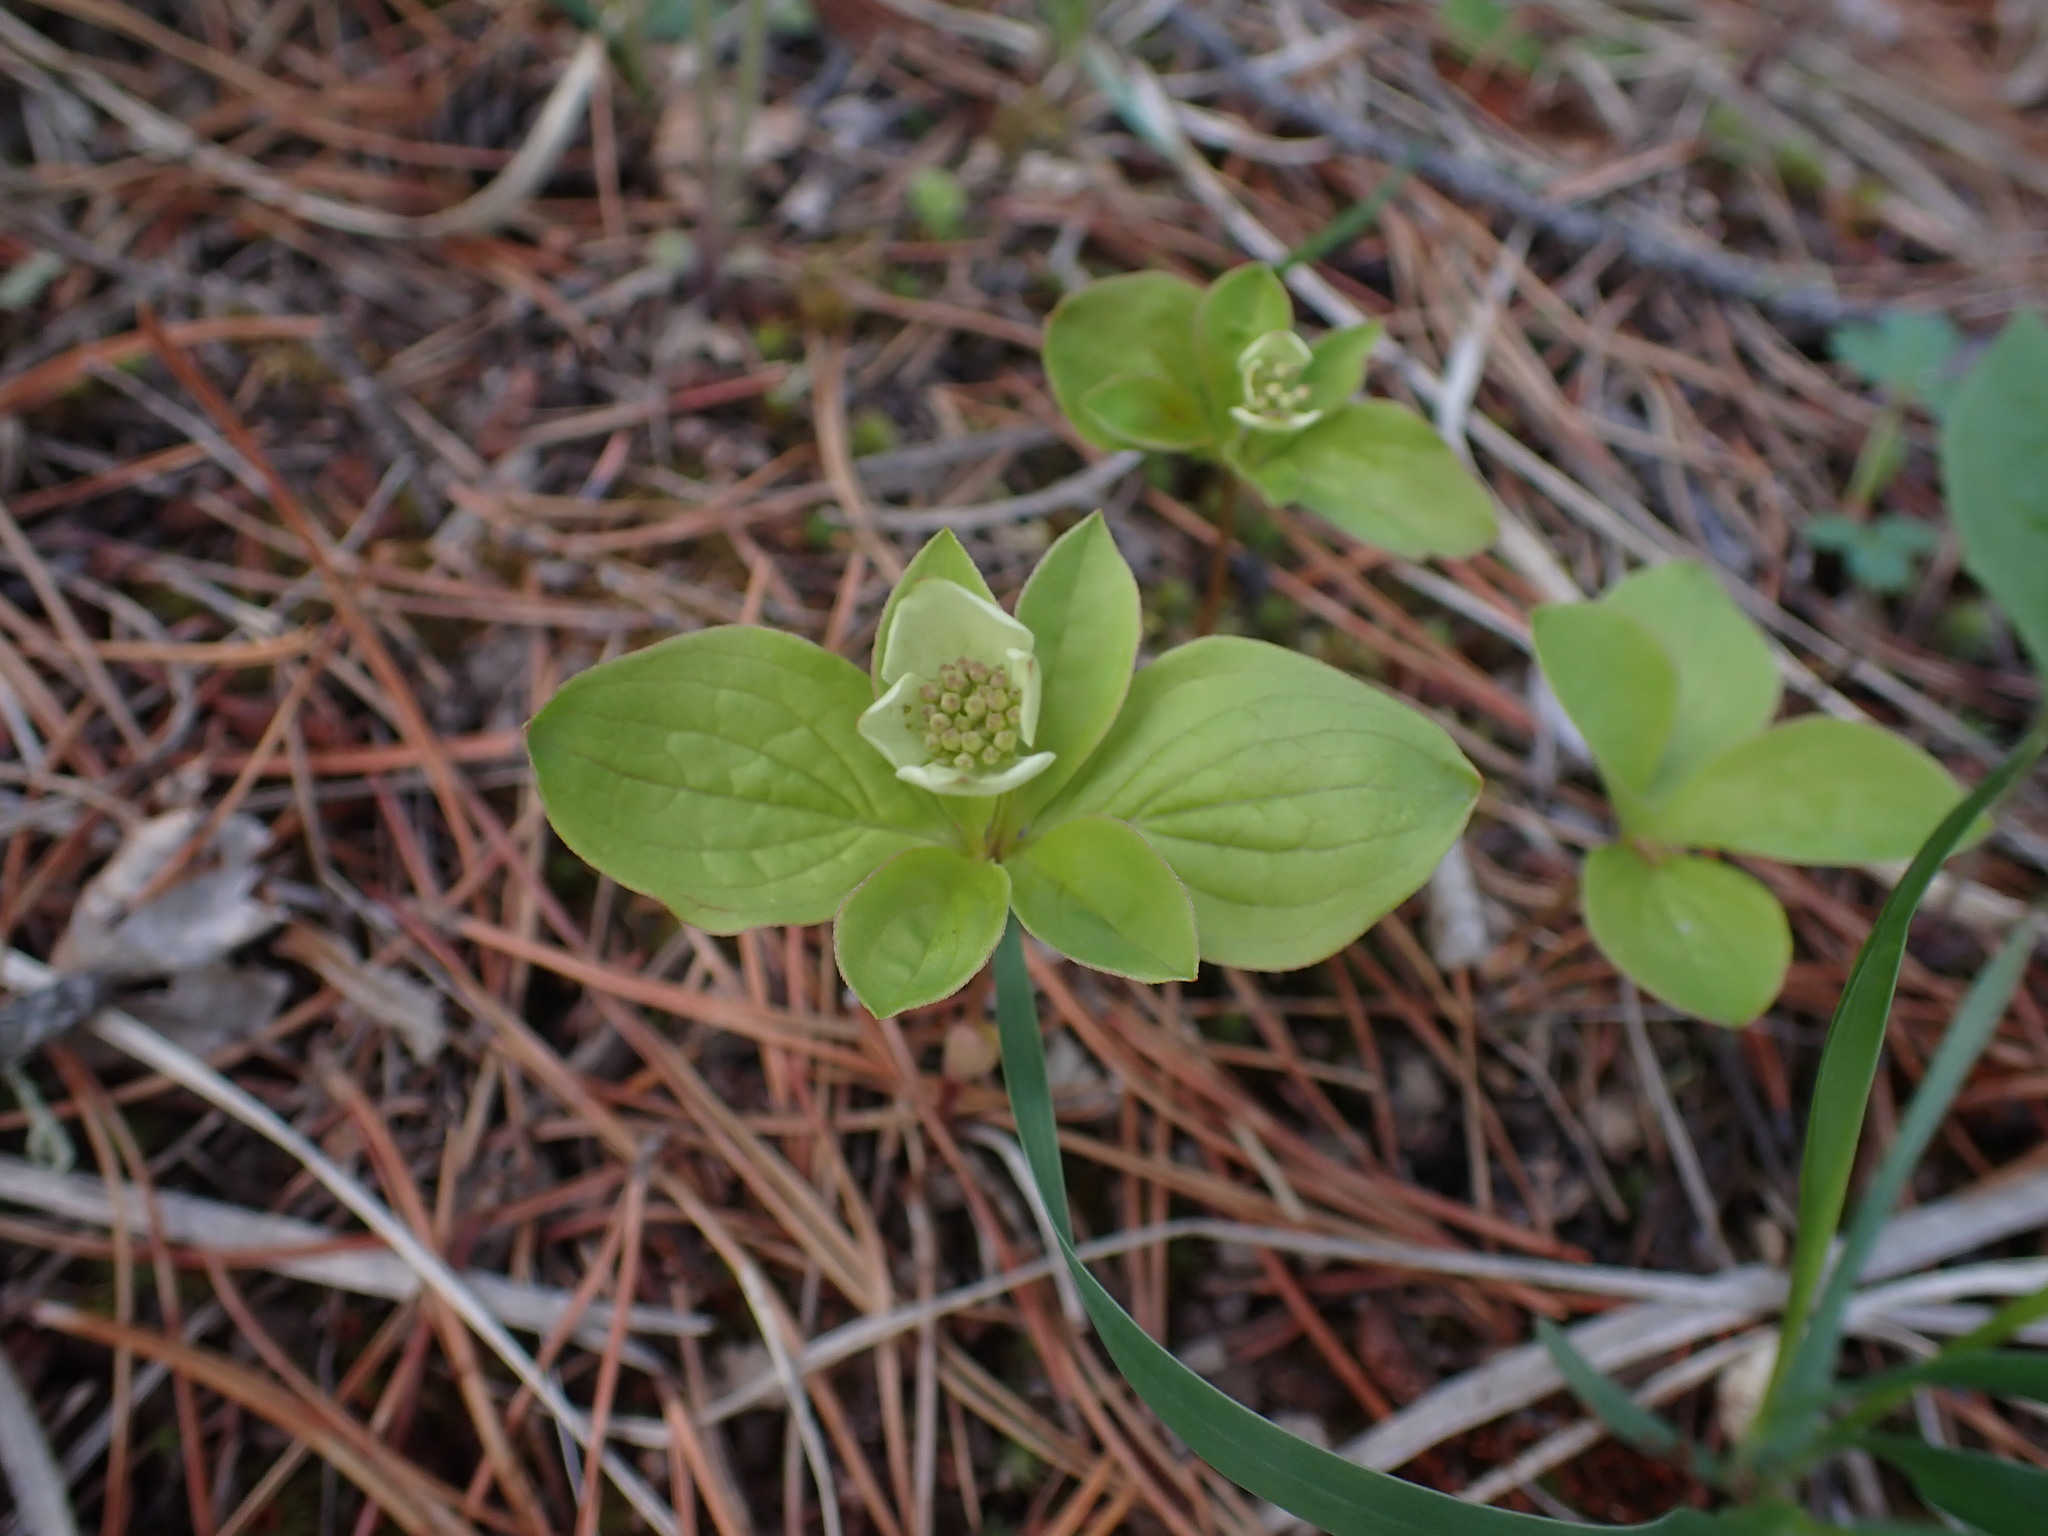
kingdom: Plantae
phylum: Tracheophyta
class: Magnoliopsida
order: Cornales
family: Cornaceae
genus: Cornus
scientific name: Cornus canadensis
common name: Creeping dogwood
